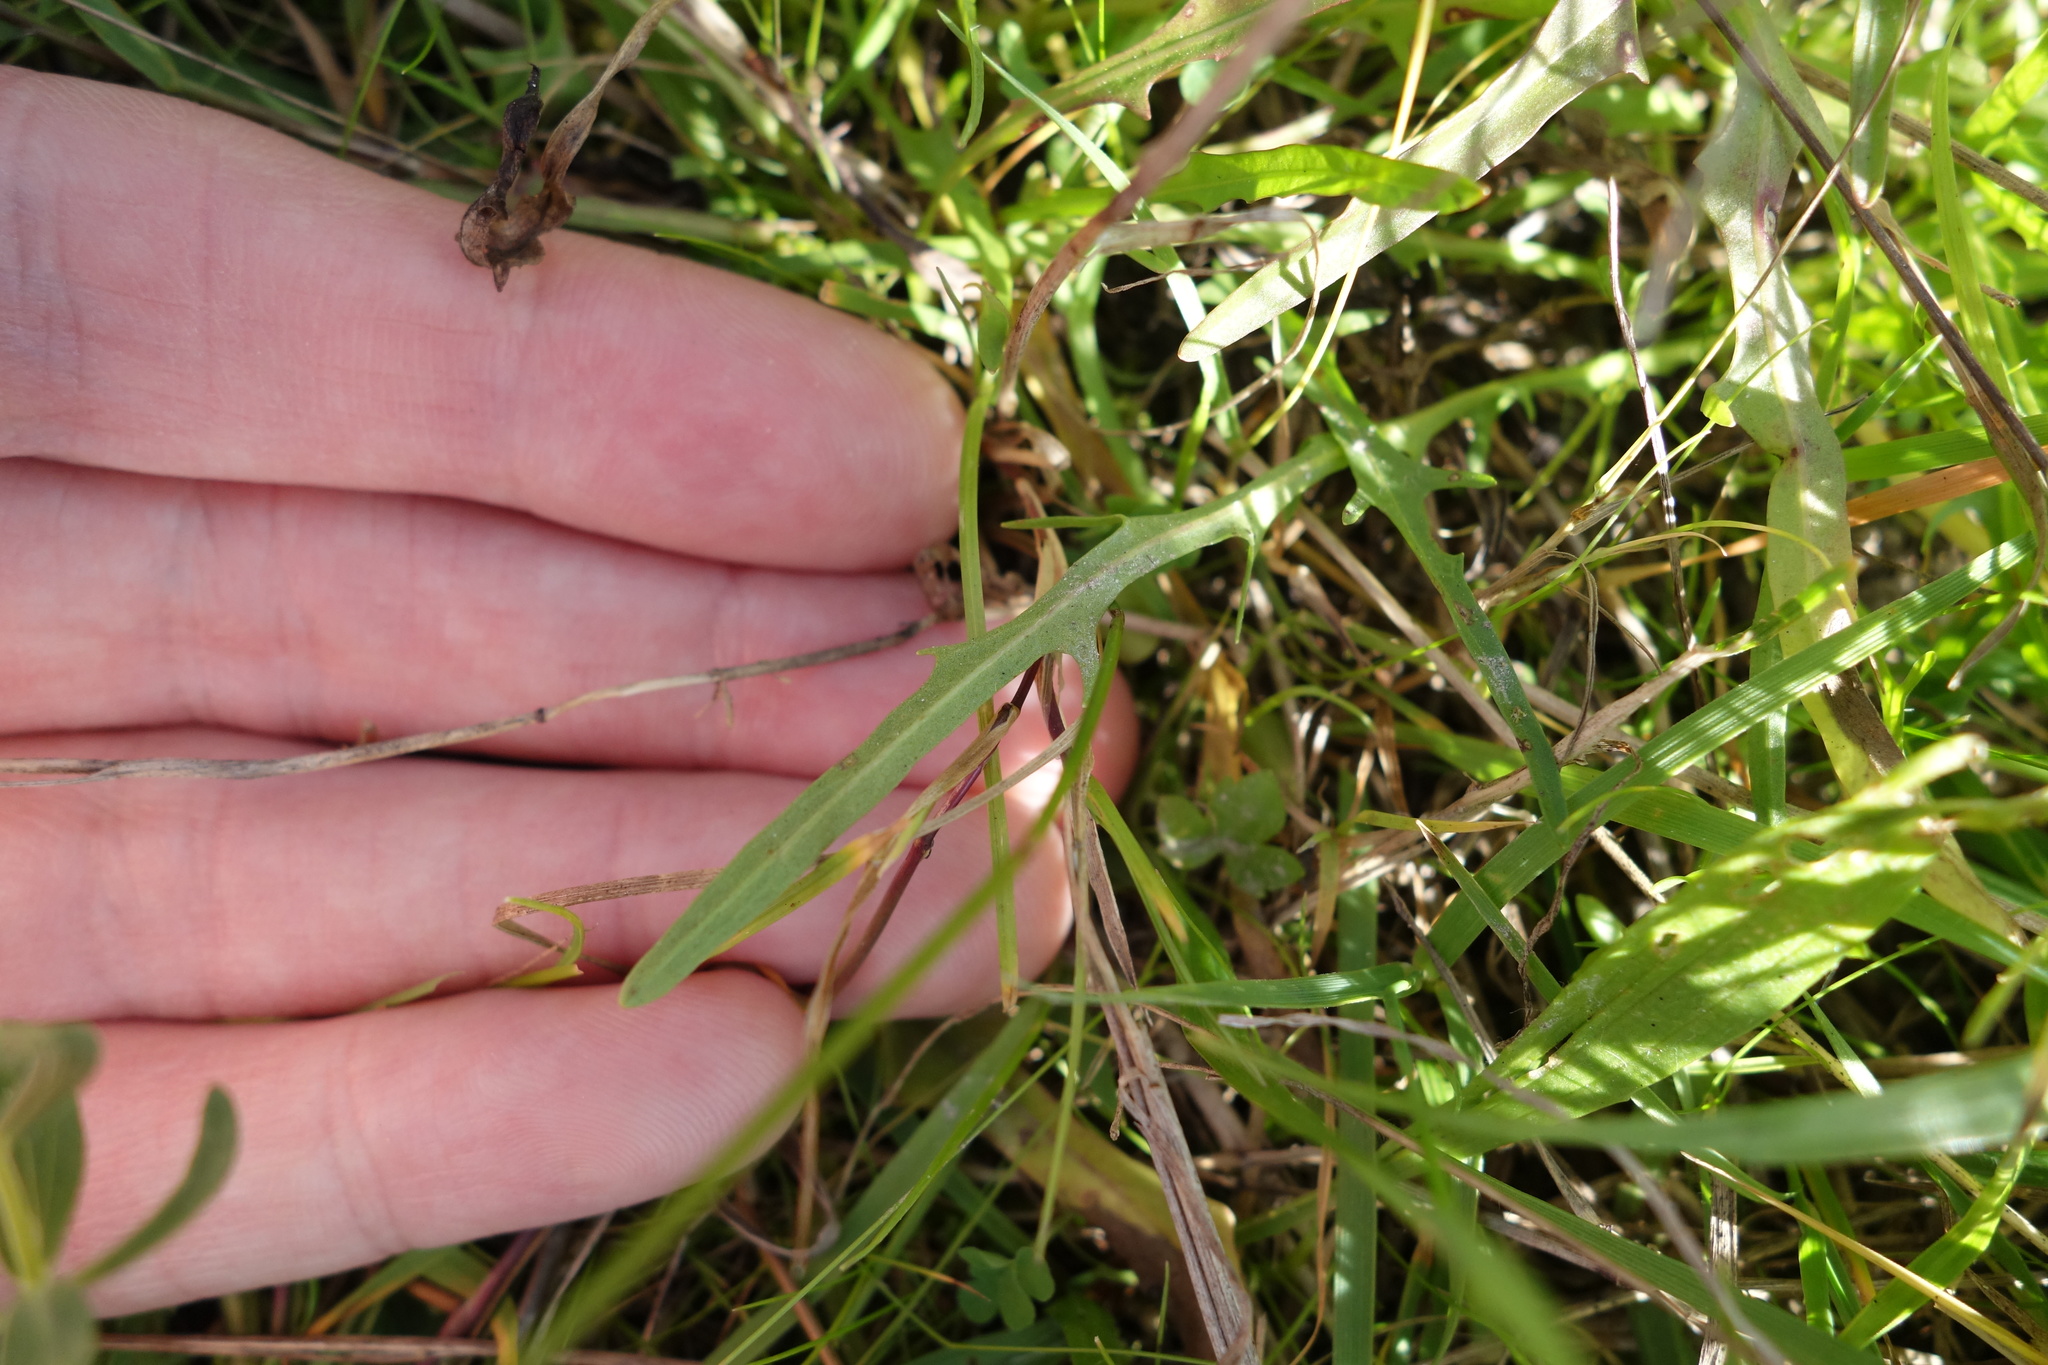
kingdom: Plantae
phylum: Tracheophyta
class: Magnoliopsida
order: Asterales
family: Asteraceae
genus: Scorzoneroides
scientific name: Scorzoneroides autumnalis
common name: Autumn hawkbit
